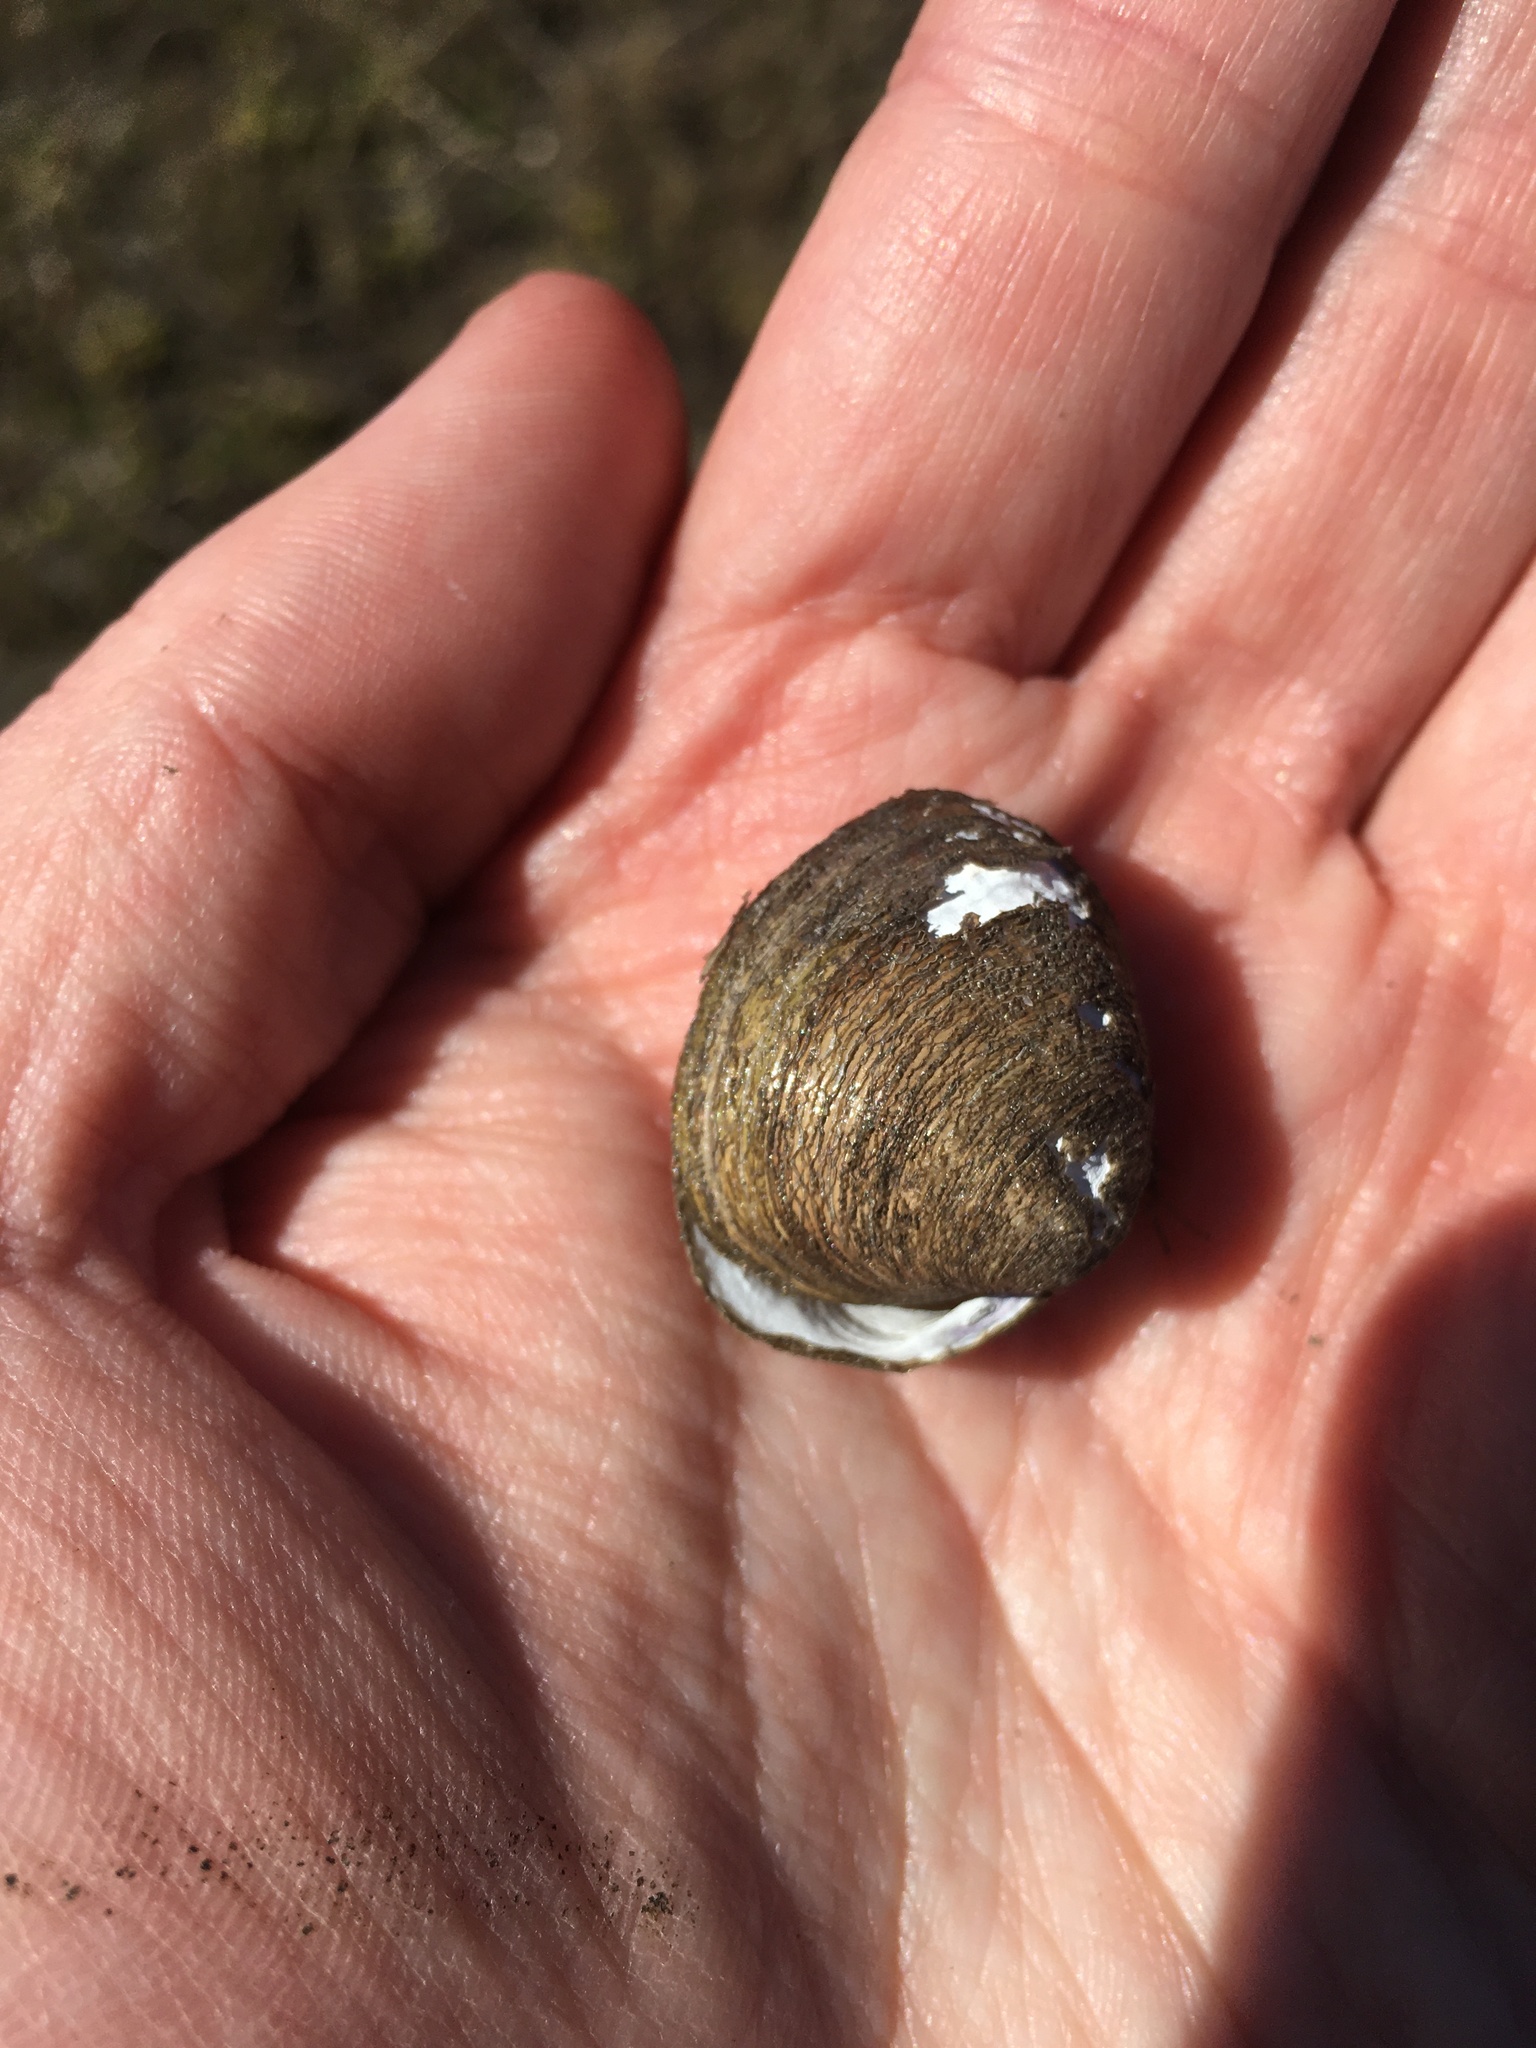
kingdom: Animalia
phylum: Mollusca
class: Bivalvia
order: Venerida
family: Cyrenidae
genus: Polymesoda
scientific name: Polymesoda caroliniana
